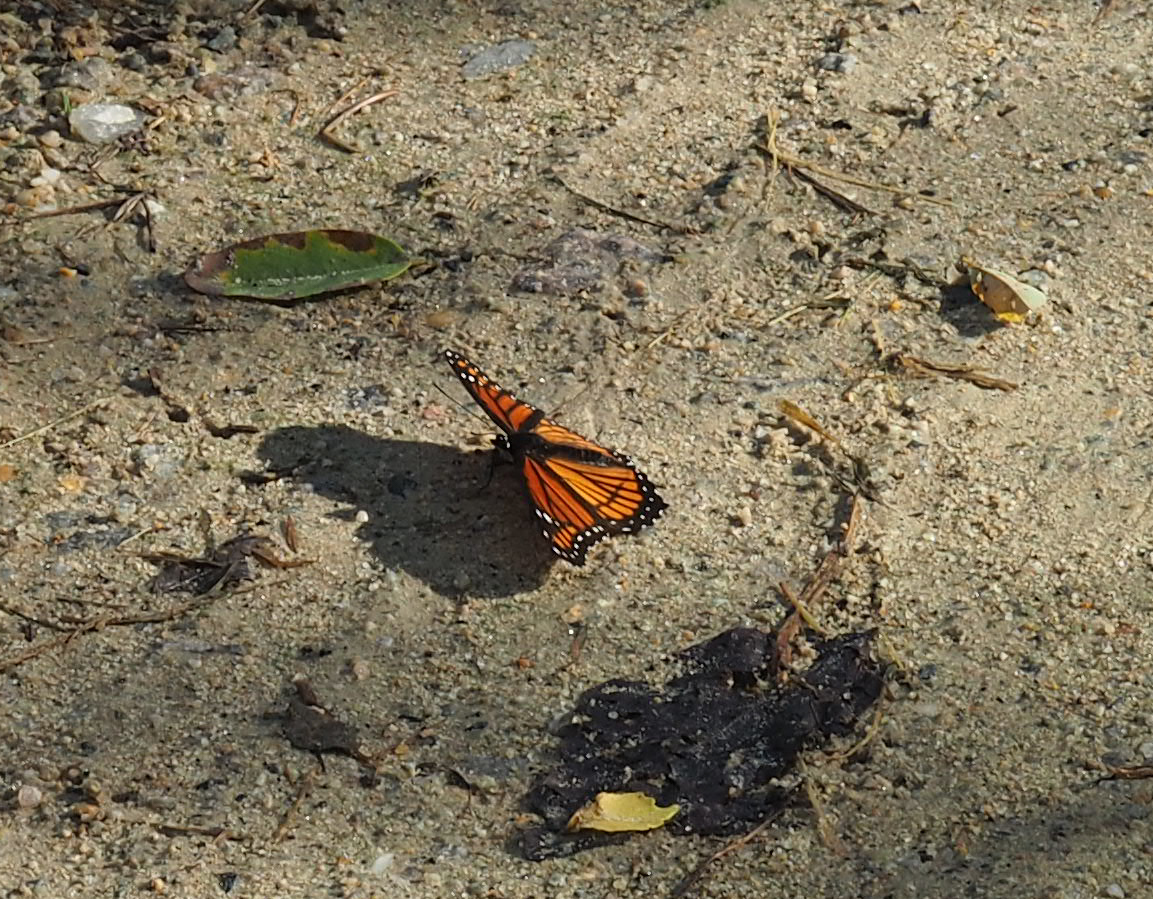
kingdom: Animalia
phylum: Arthropoda
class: Insecta
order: Lepidoptera
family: Nymphalidae
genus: Limenitis
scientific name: Limenitis archippus
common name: Viceroy
